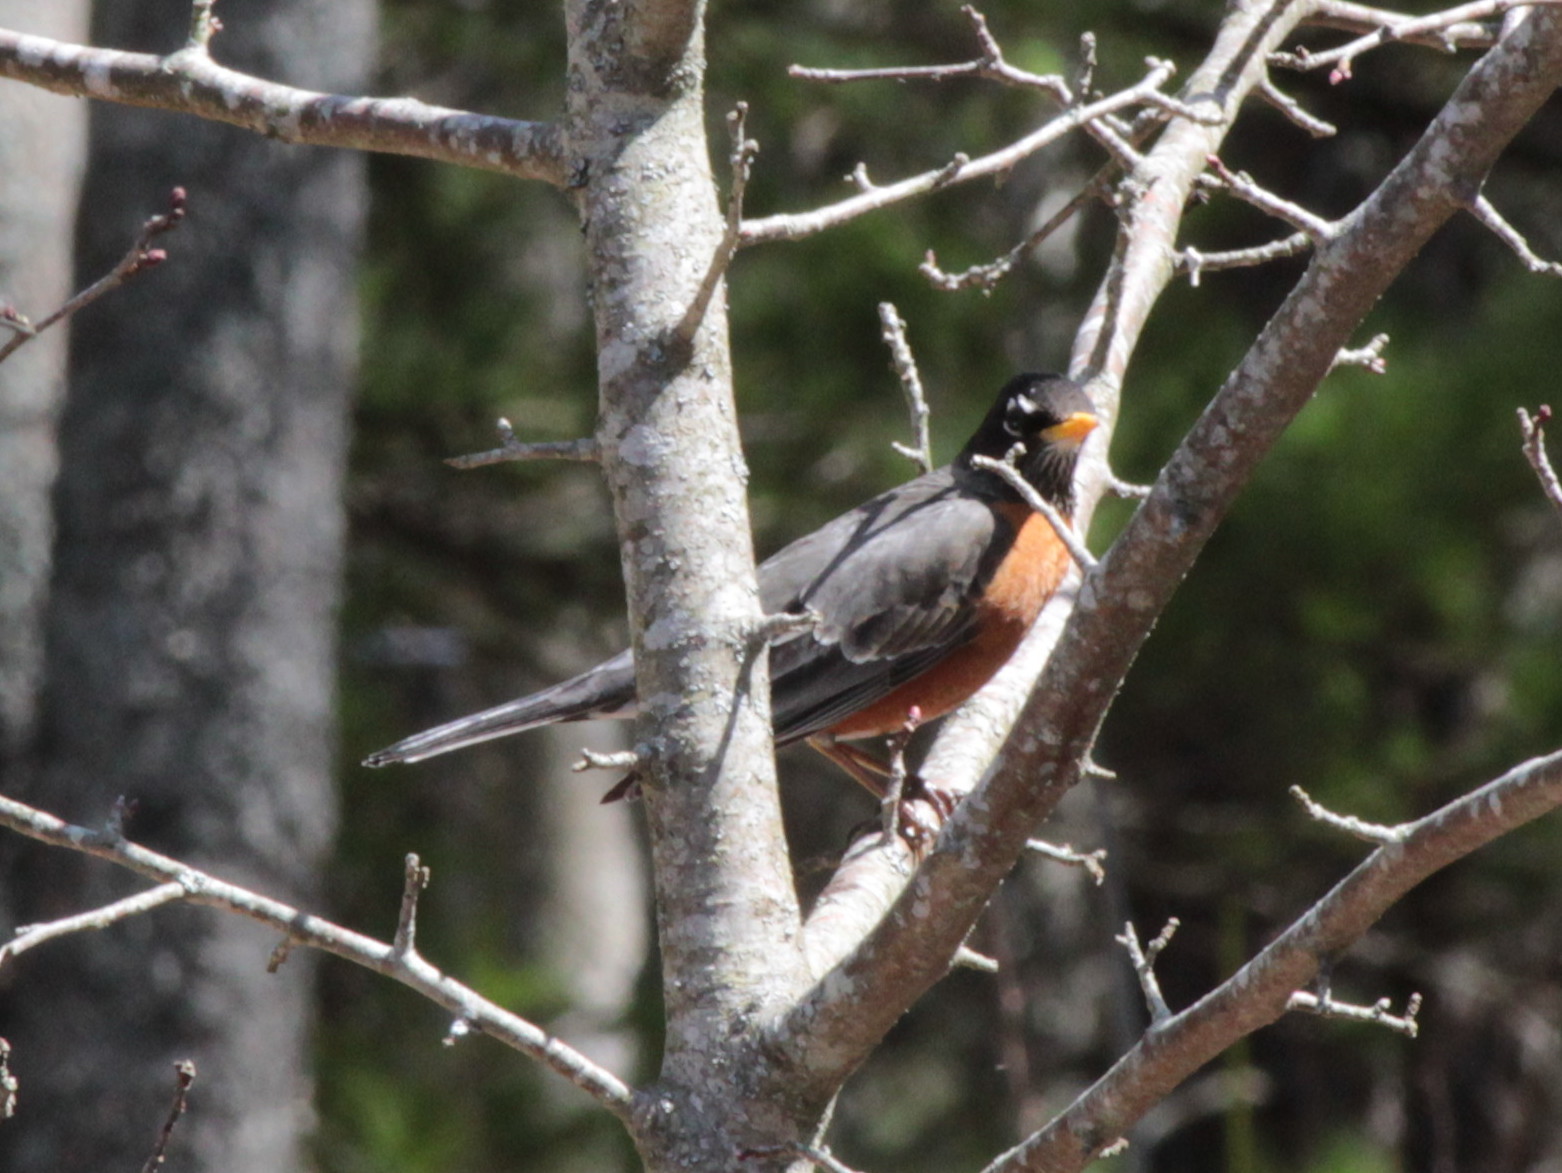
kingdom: Animalia
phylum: Chordata
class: Aves
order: Passeriformes
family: Turdidae
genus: Turdus
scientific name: Turdus migratorius
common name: American robin
